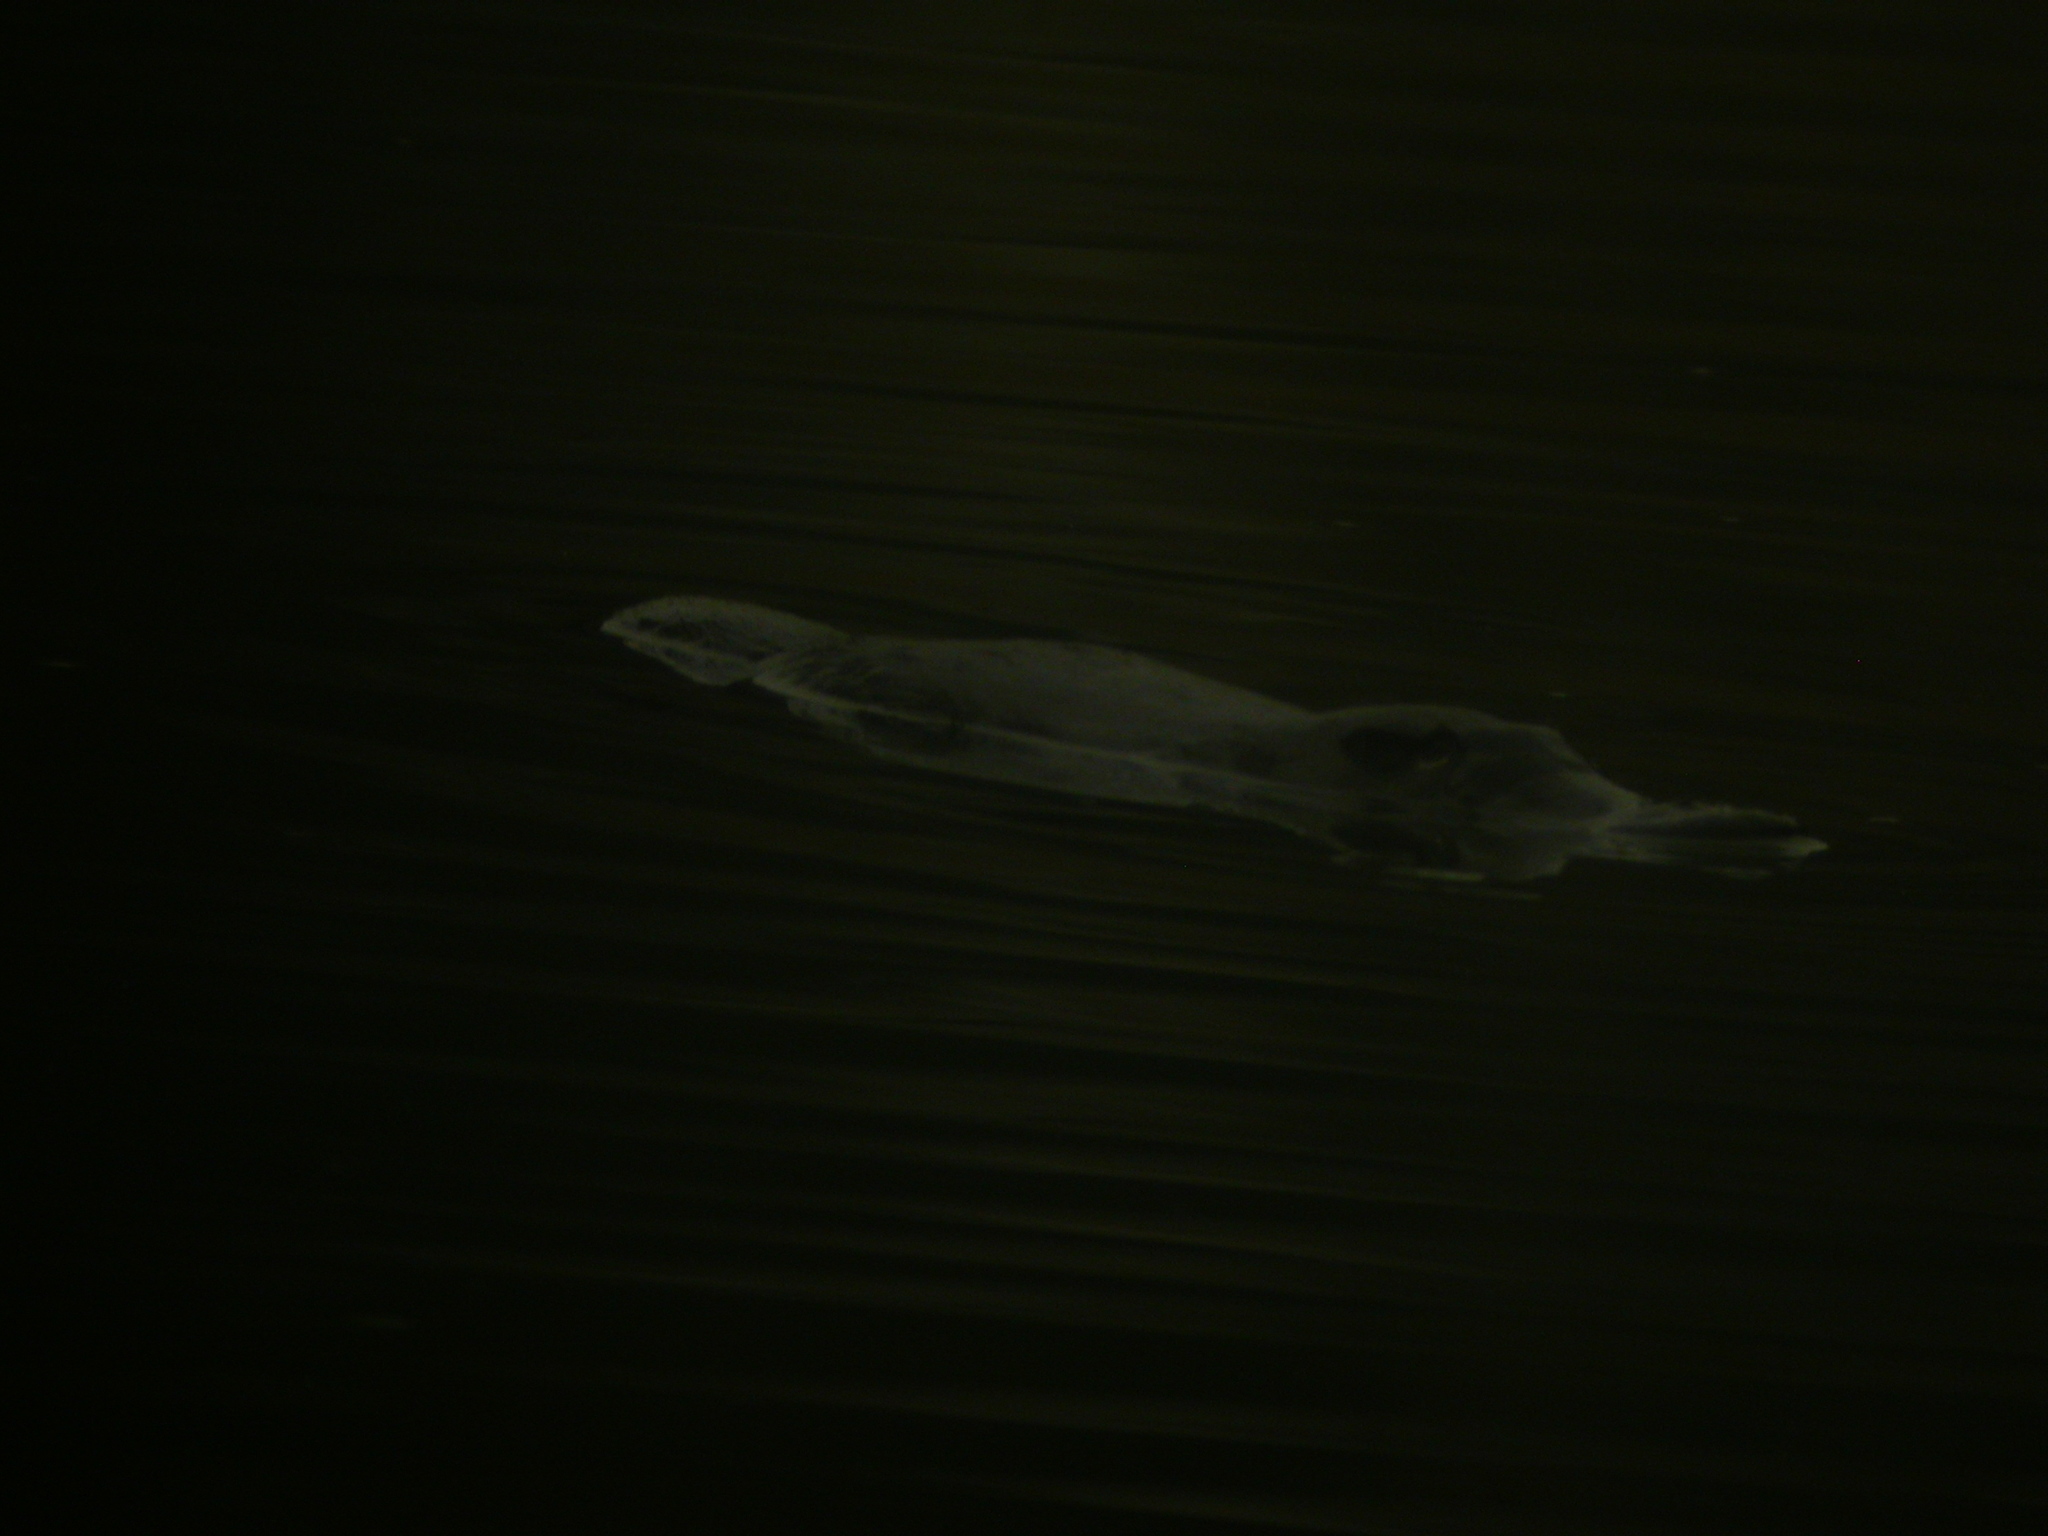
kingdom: Animalia
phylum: Chordata
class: Mammalia
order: Monotremata
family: Ornithorhynchidae
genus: Ornithorhynchus
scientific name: Ornithorhynchus anatinus
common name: Platypus
